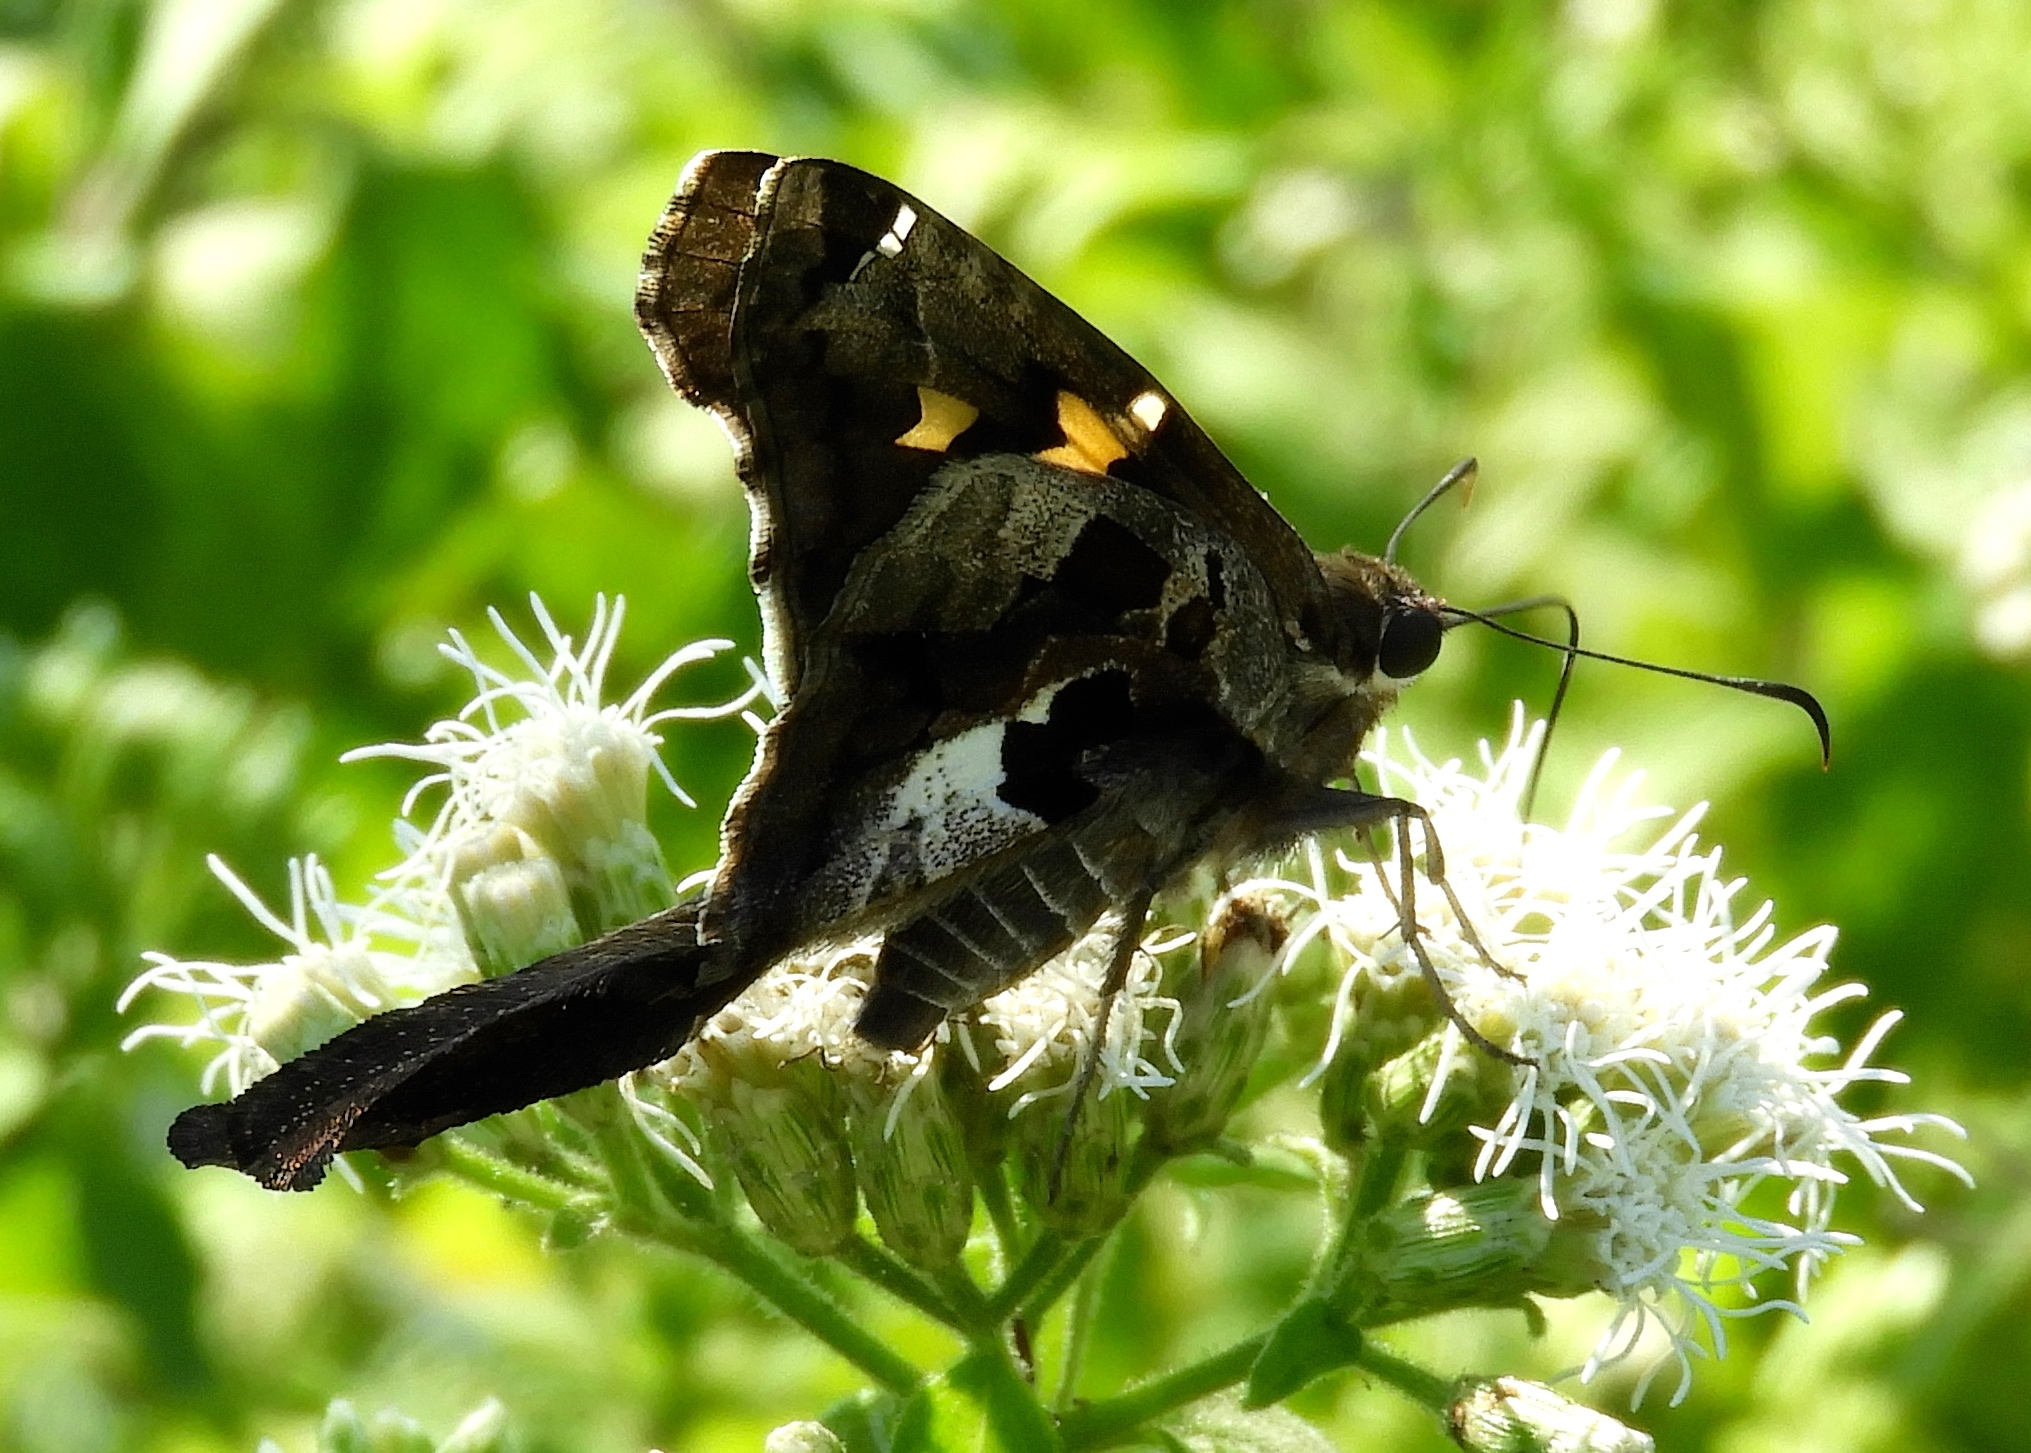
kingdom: Animalia
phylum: Arthropoda
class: Insecta
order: Lepidoptera
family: Hesperiidae
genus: Chioides
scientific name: Chioides zilpa
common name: Zilpa longtail
